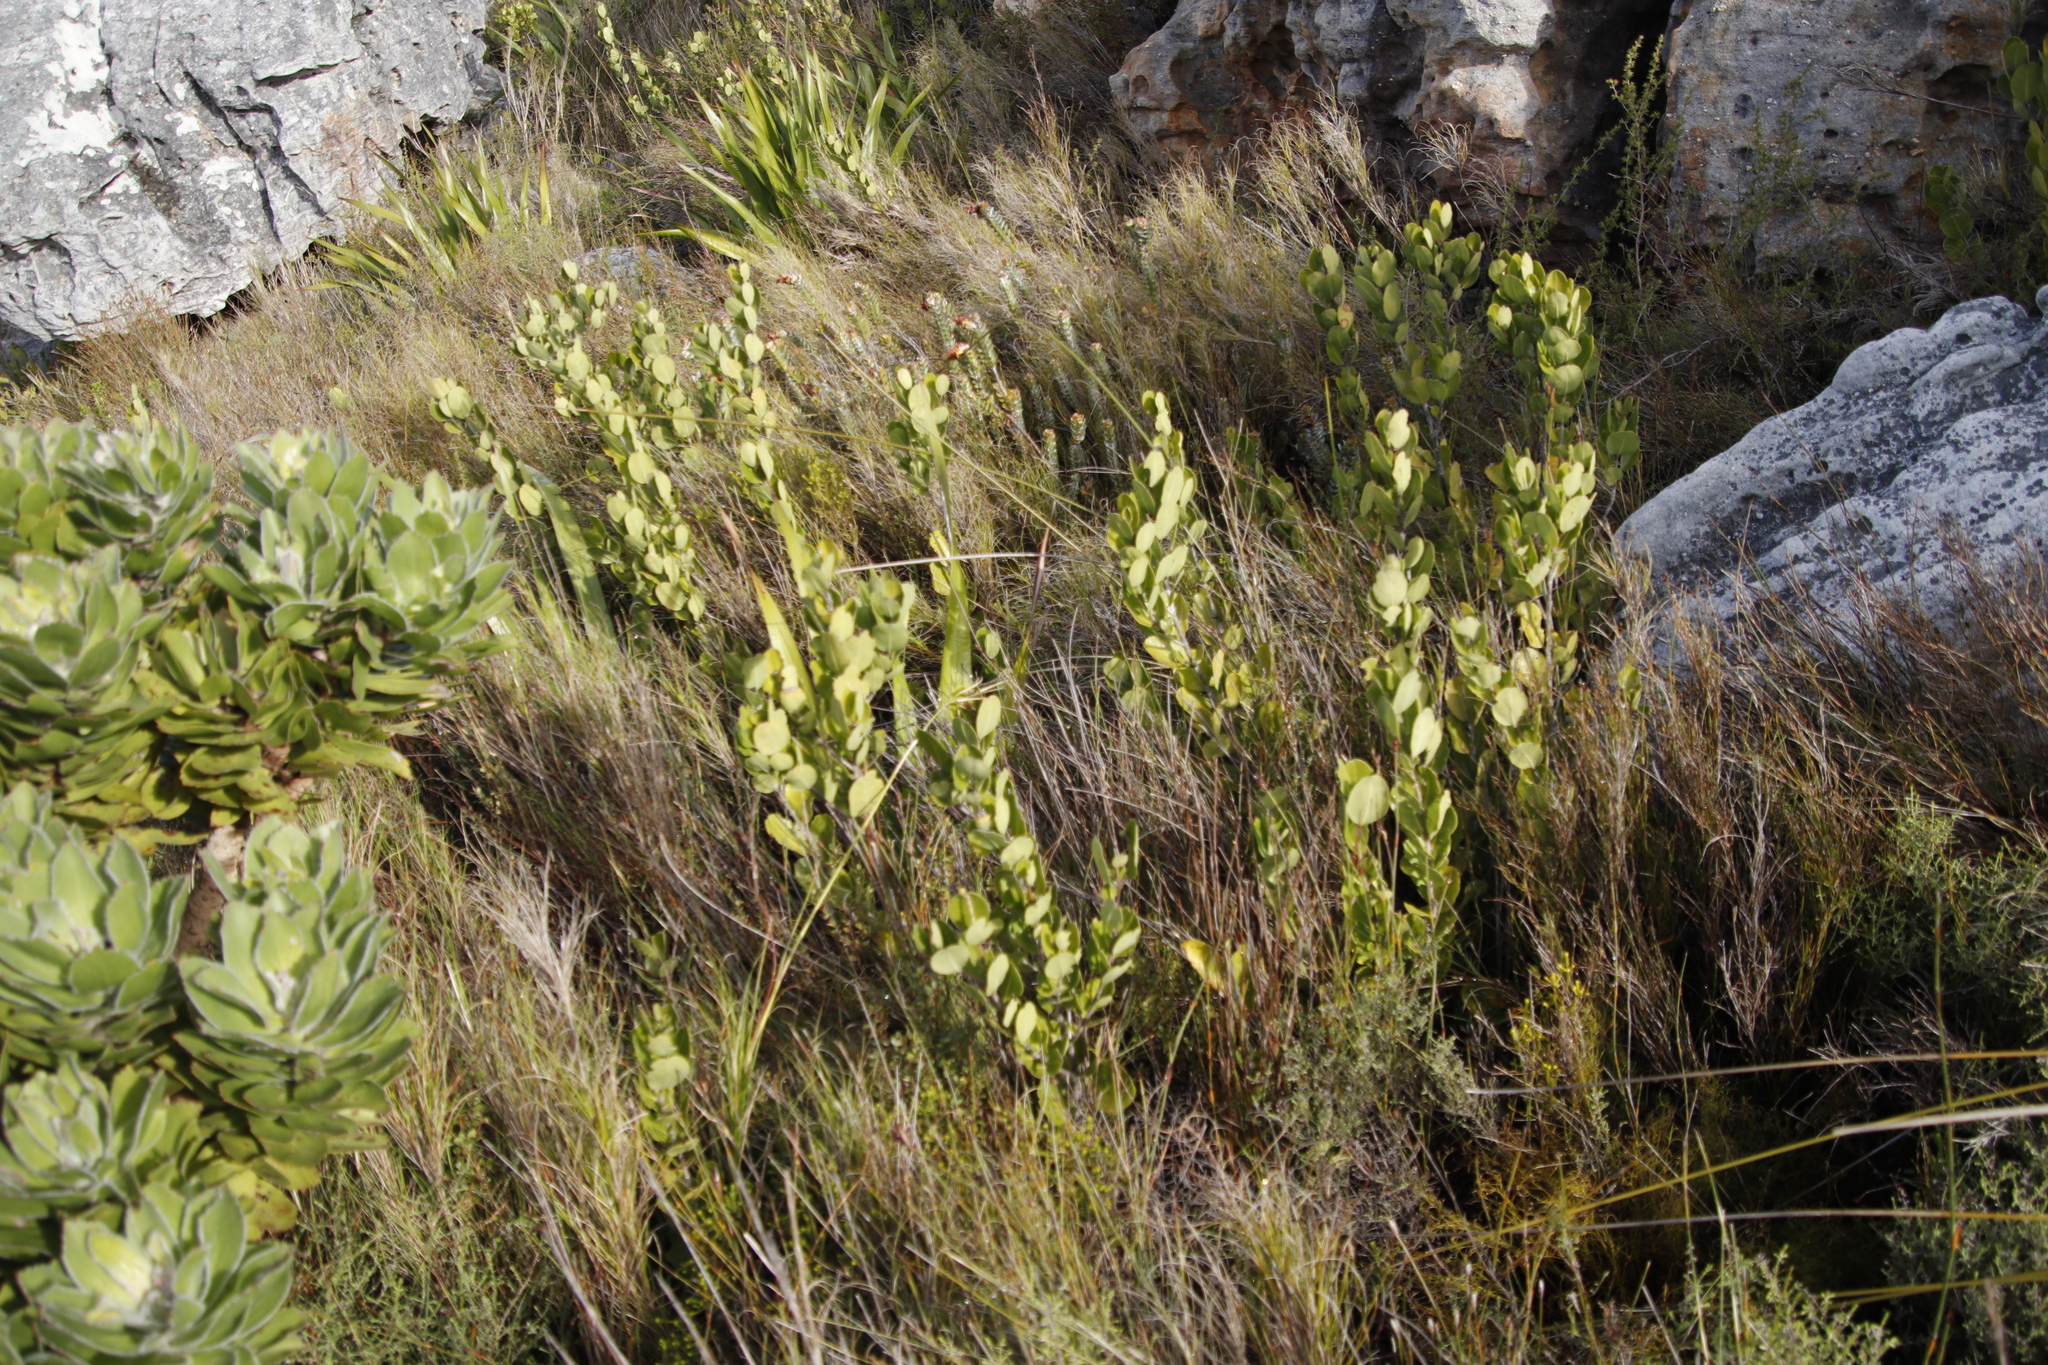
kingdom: Plantae
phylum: Tracheophyta
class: Magnoliopsida
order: Lamiales
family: Oleaceae
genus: Olea
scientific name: Olea capensis
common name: Black ironwood
